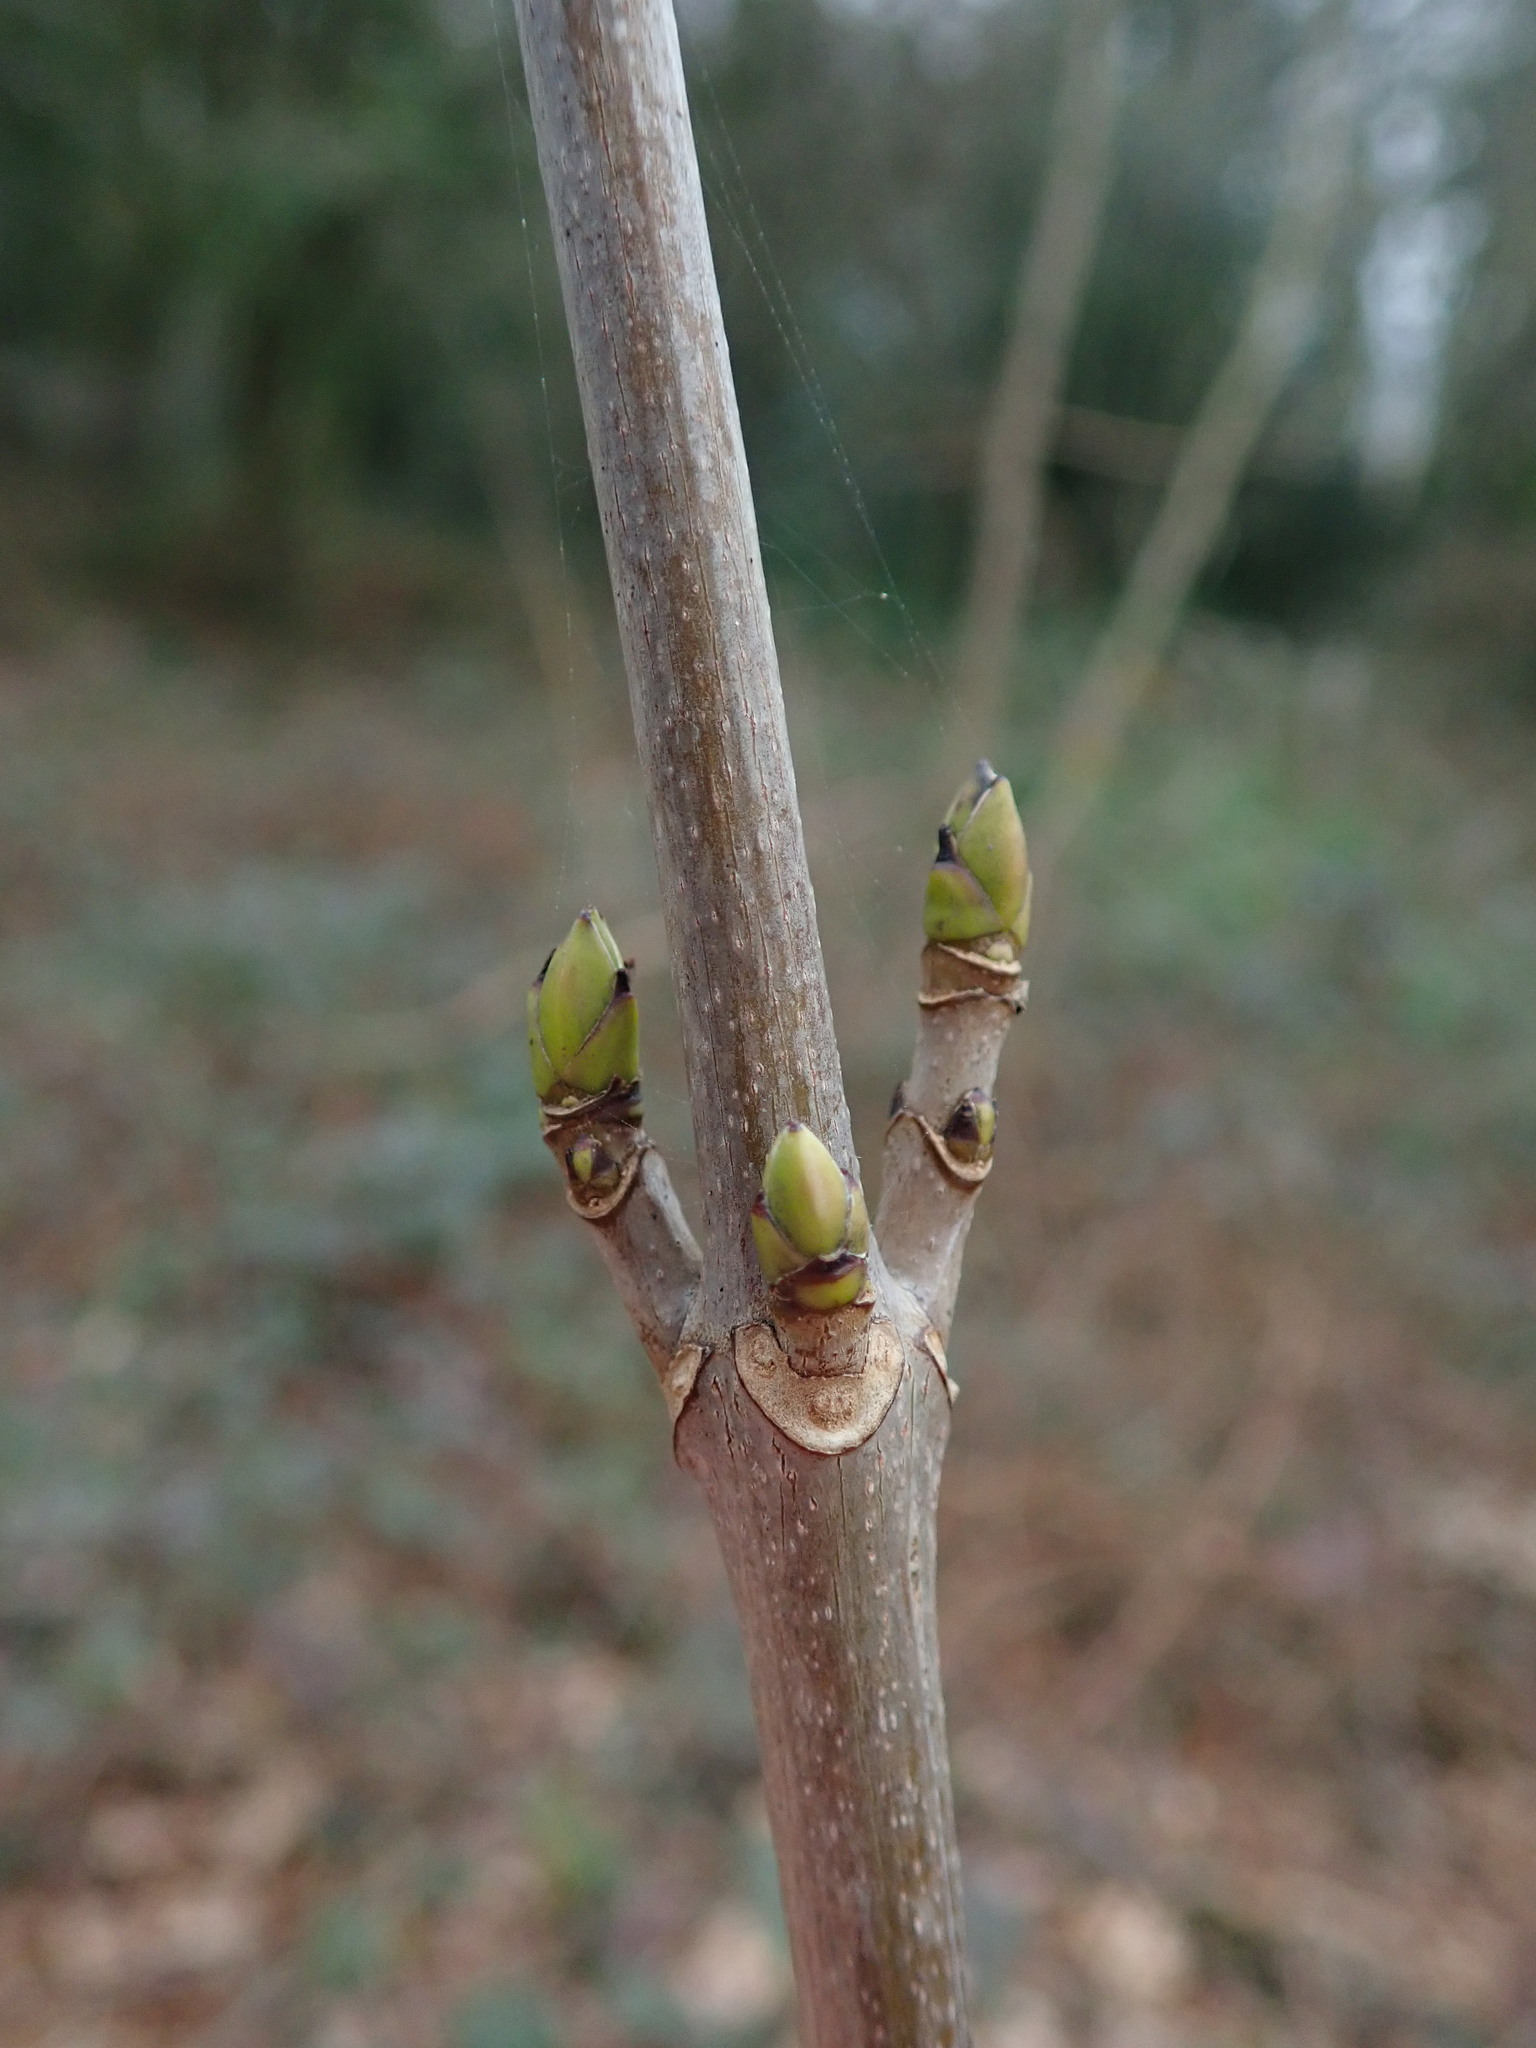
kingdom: Plantae
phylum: Tracheophyta
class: Magnoliopsida
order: Sapindales
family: Sapindaceae
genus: Acer
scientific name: Acer pseudoplatanus
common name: Sycamore
